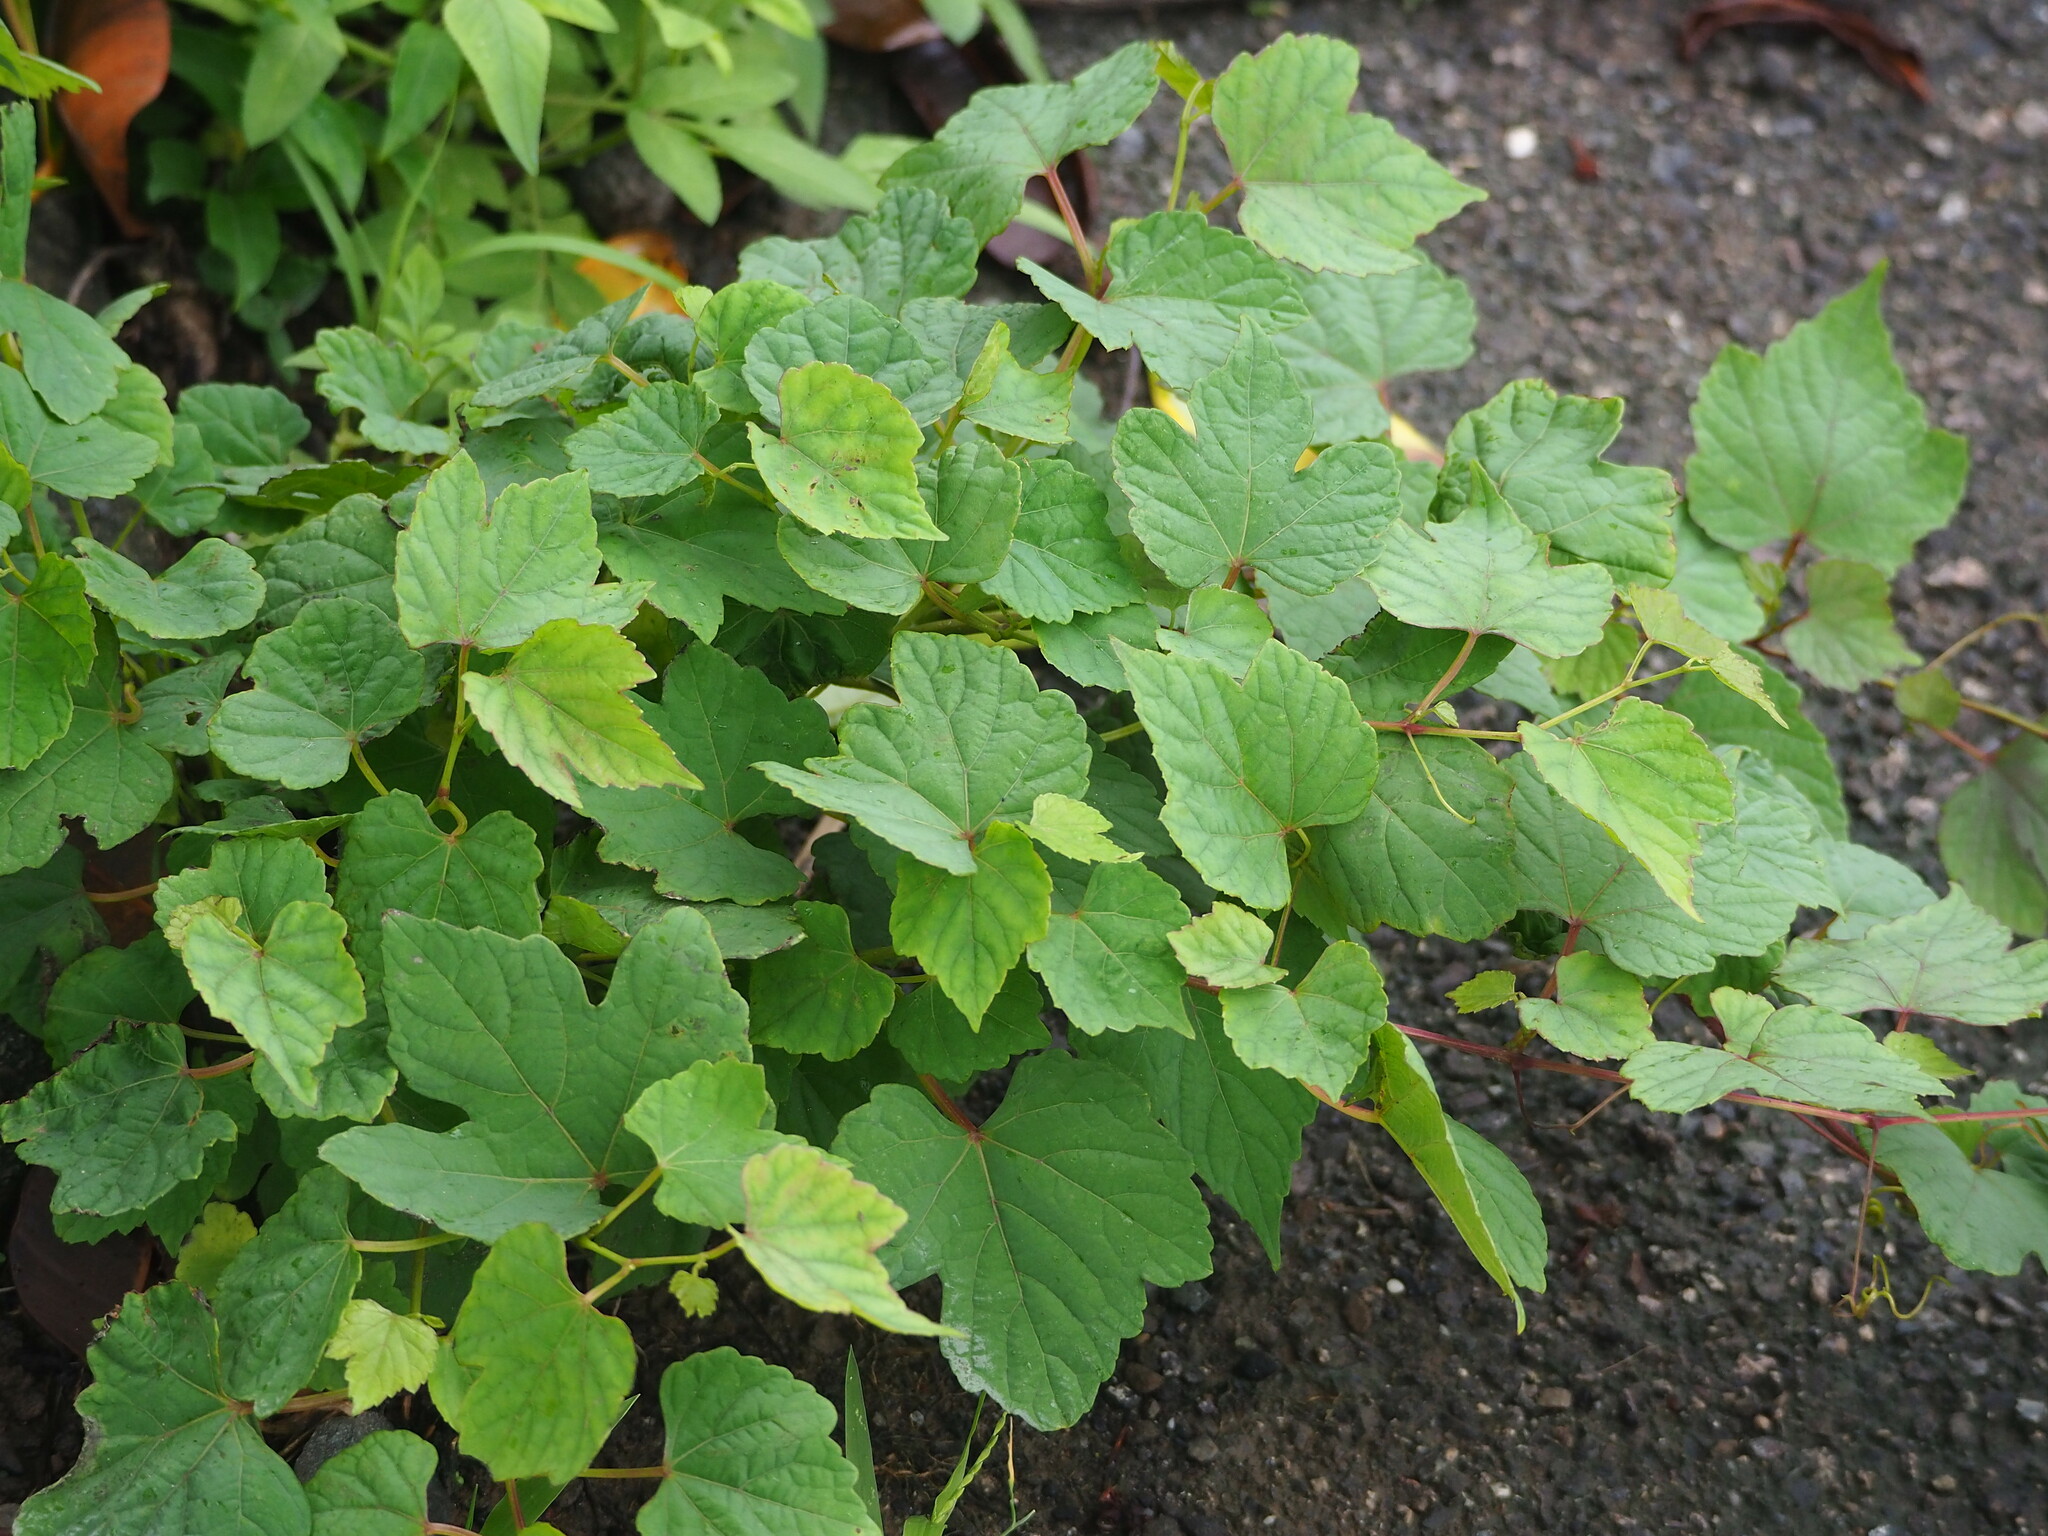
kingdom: Plantae
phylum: Tracheophyta
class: Magnoliopsida
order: Vitales
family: Vitaceae
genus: Ampelopsis
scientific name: Ampelopsis glandulosa
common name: Amur peppervine
